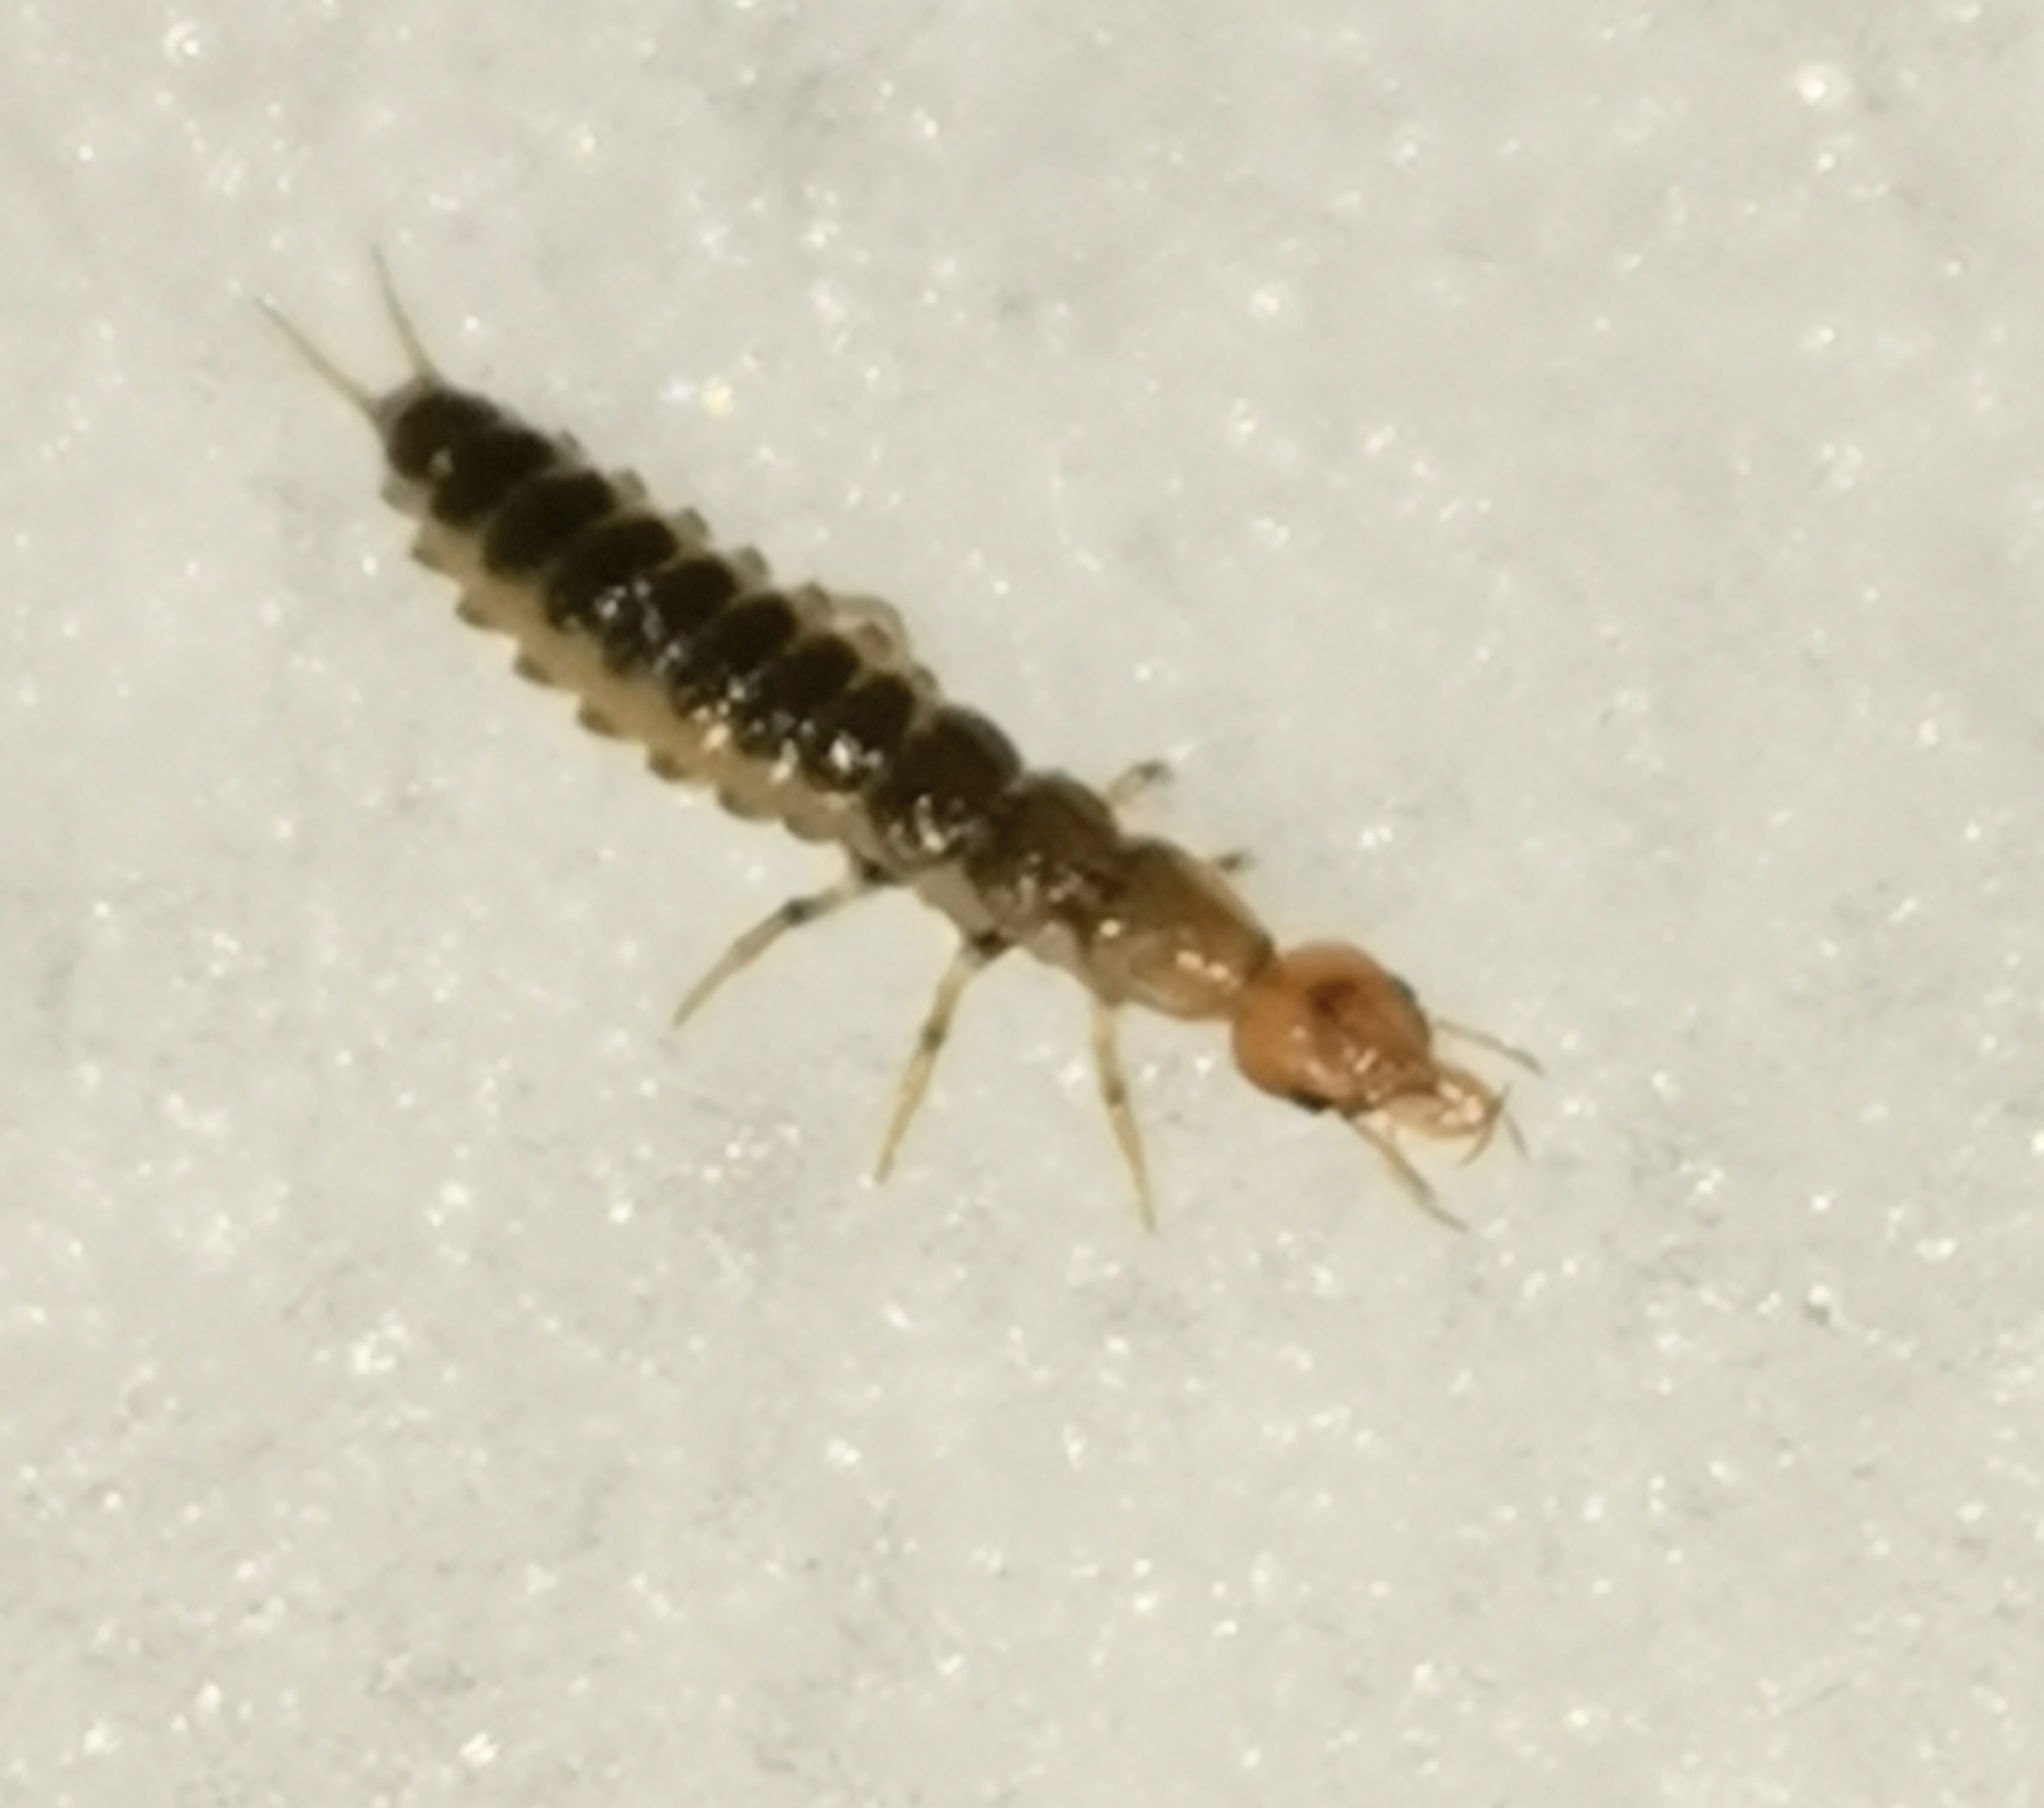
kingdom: Animalia
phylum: Arthropoda
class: Insecta
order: Coleoptera
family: Carabidae
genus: Leistus
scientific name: Leistus
